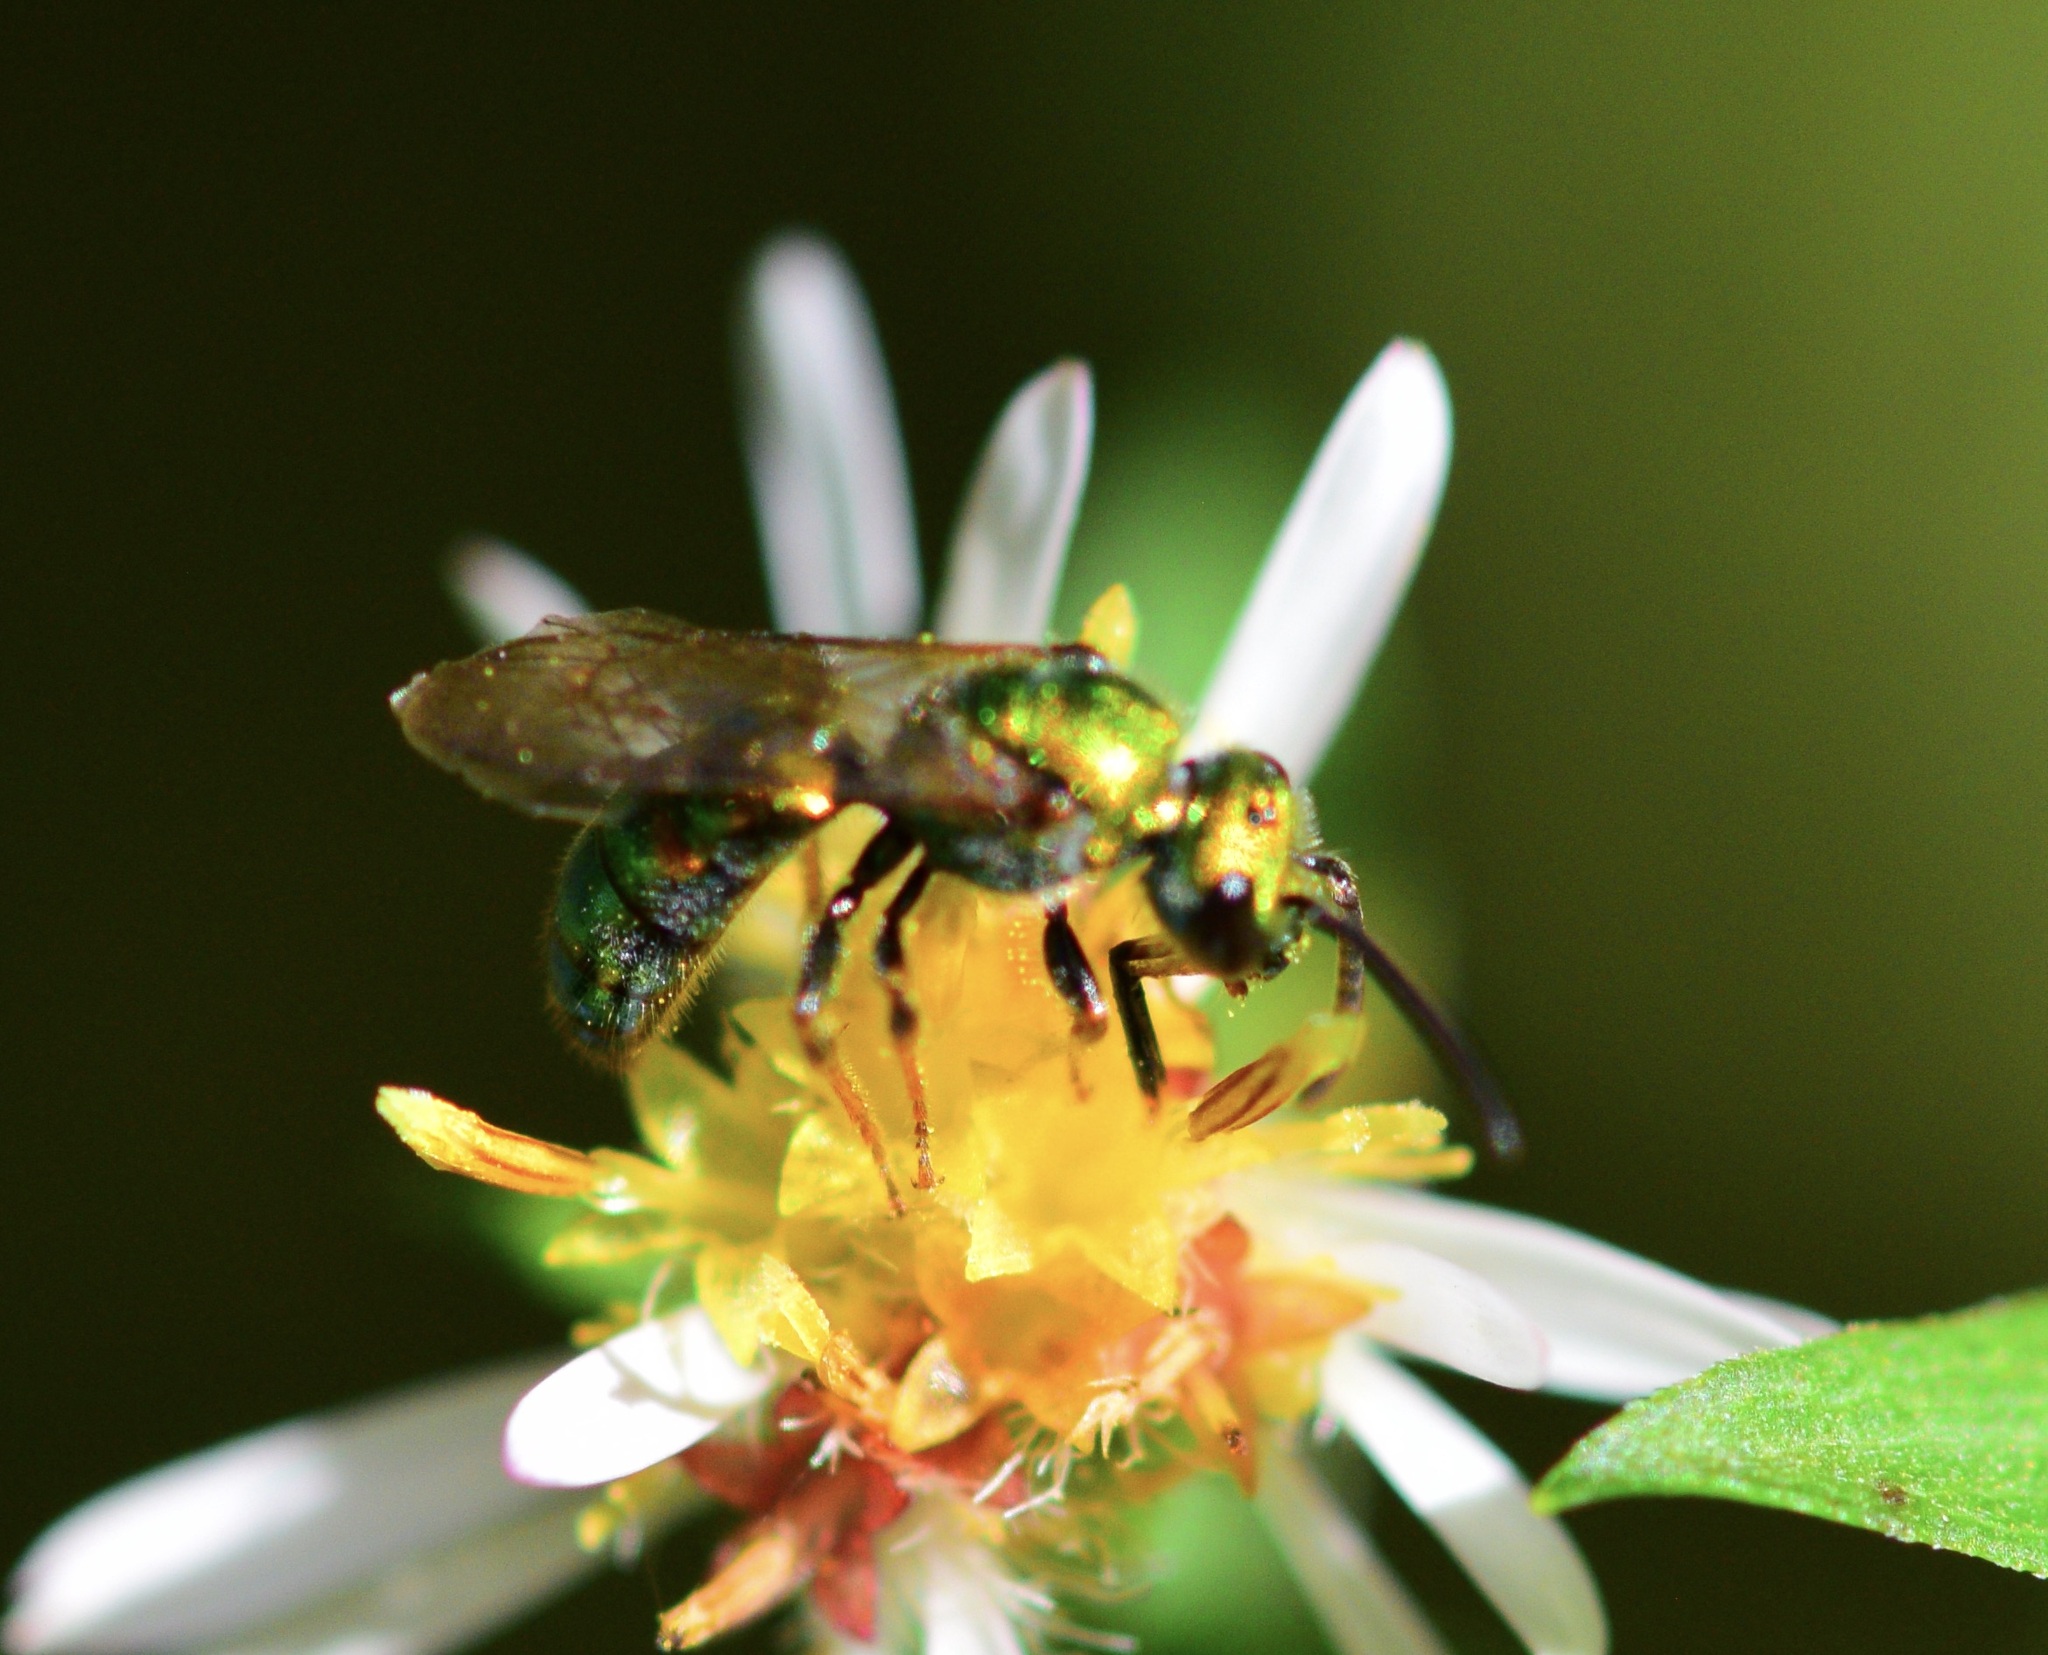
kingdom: Animalia
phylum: Arthropoda
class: Insecta
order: Hymenoptera
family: Halictidae
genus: Augochlora
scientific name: Augochlora pura
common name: Pure green sweat bee
